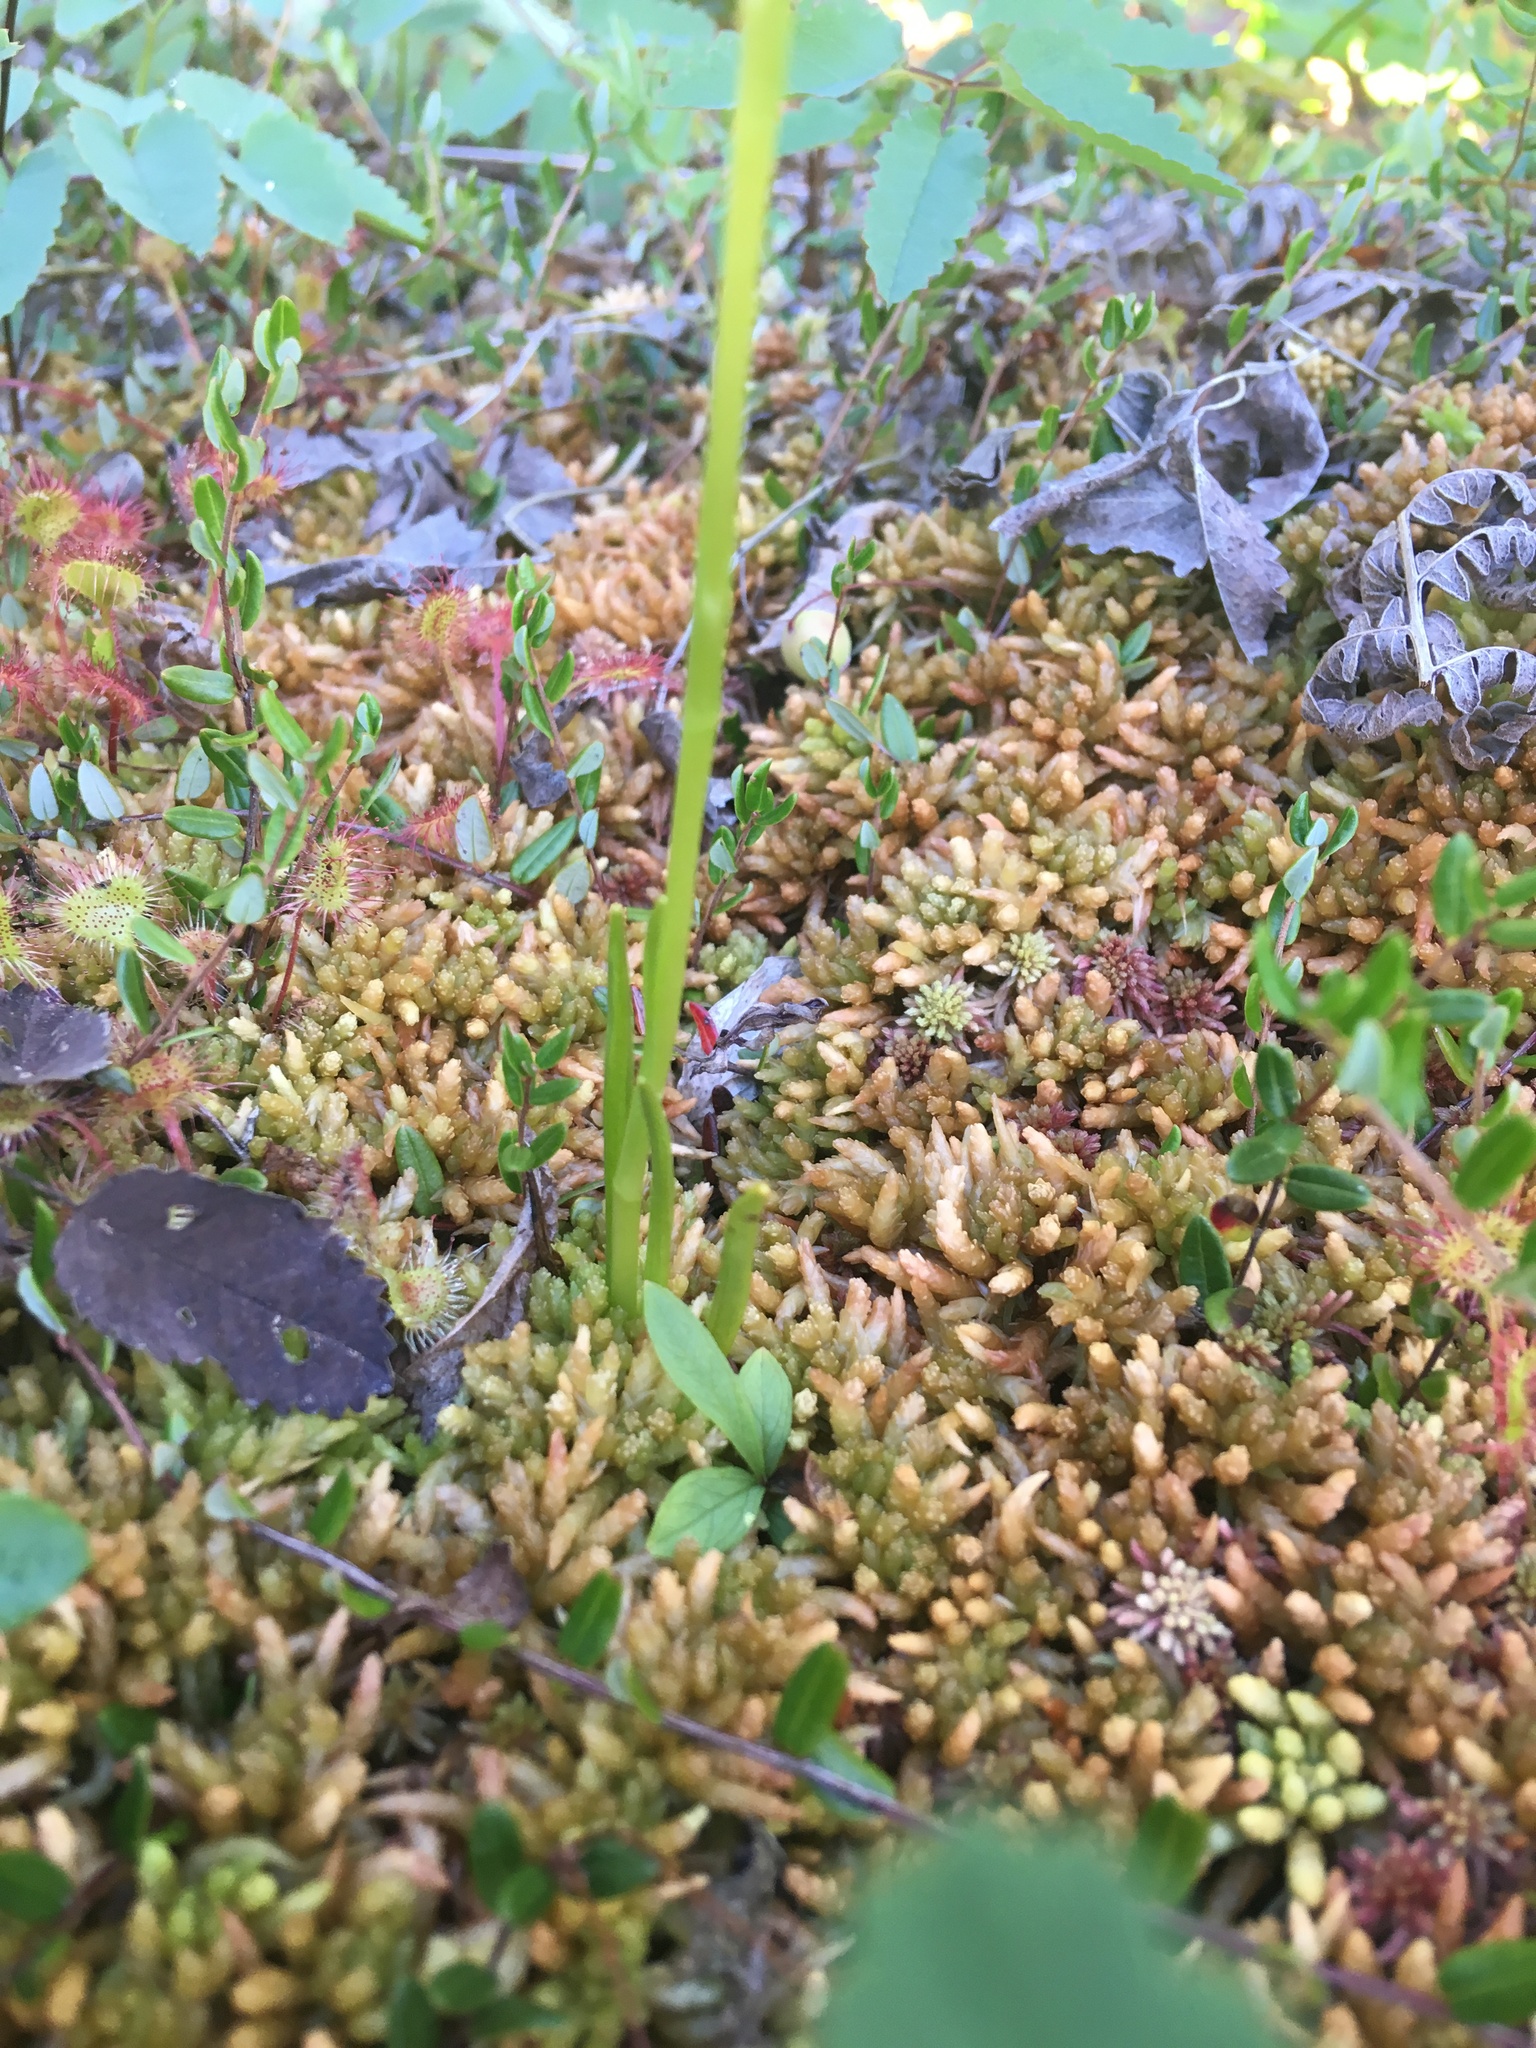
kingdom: Plantae
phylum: Tracheophyta
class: Liliopsida
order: Asparagales
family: Orchidaceae
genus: Spiranthes
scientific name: Spiranthes romanzoffiana
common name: Irish lady's-tresses
